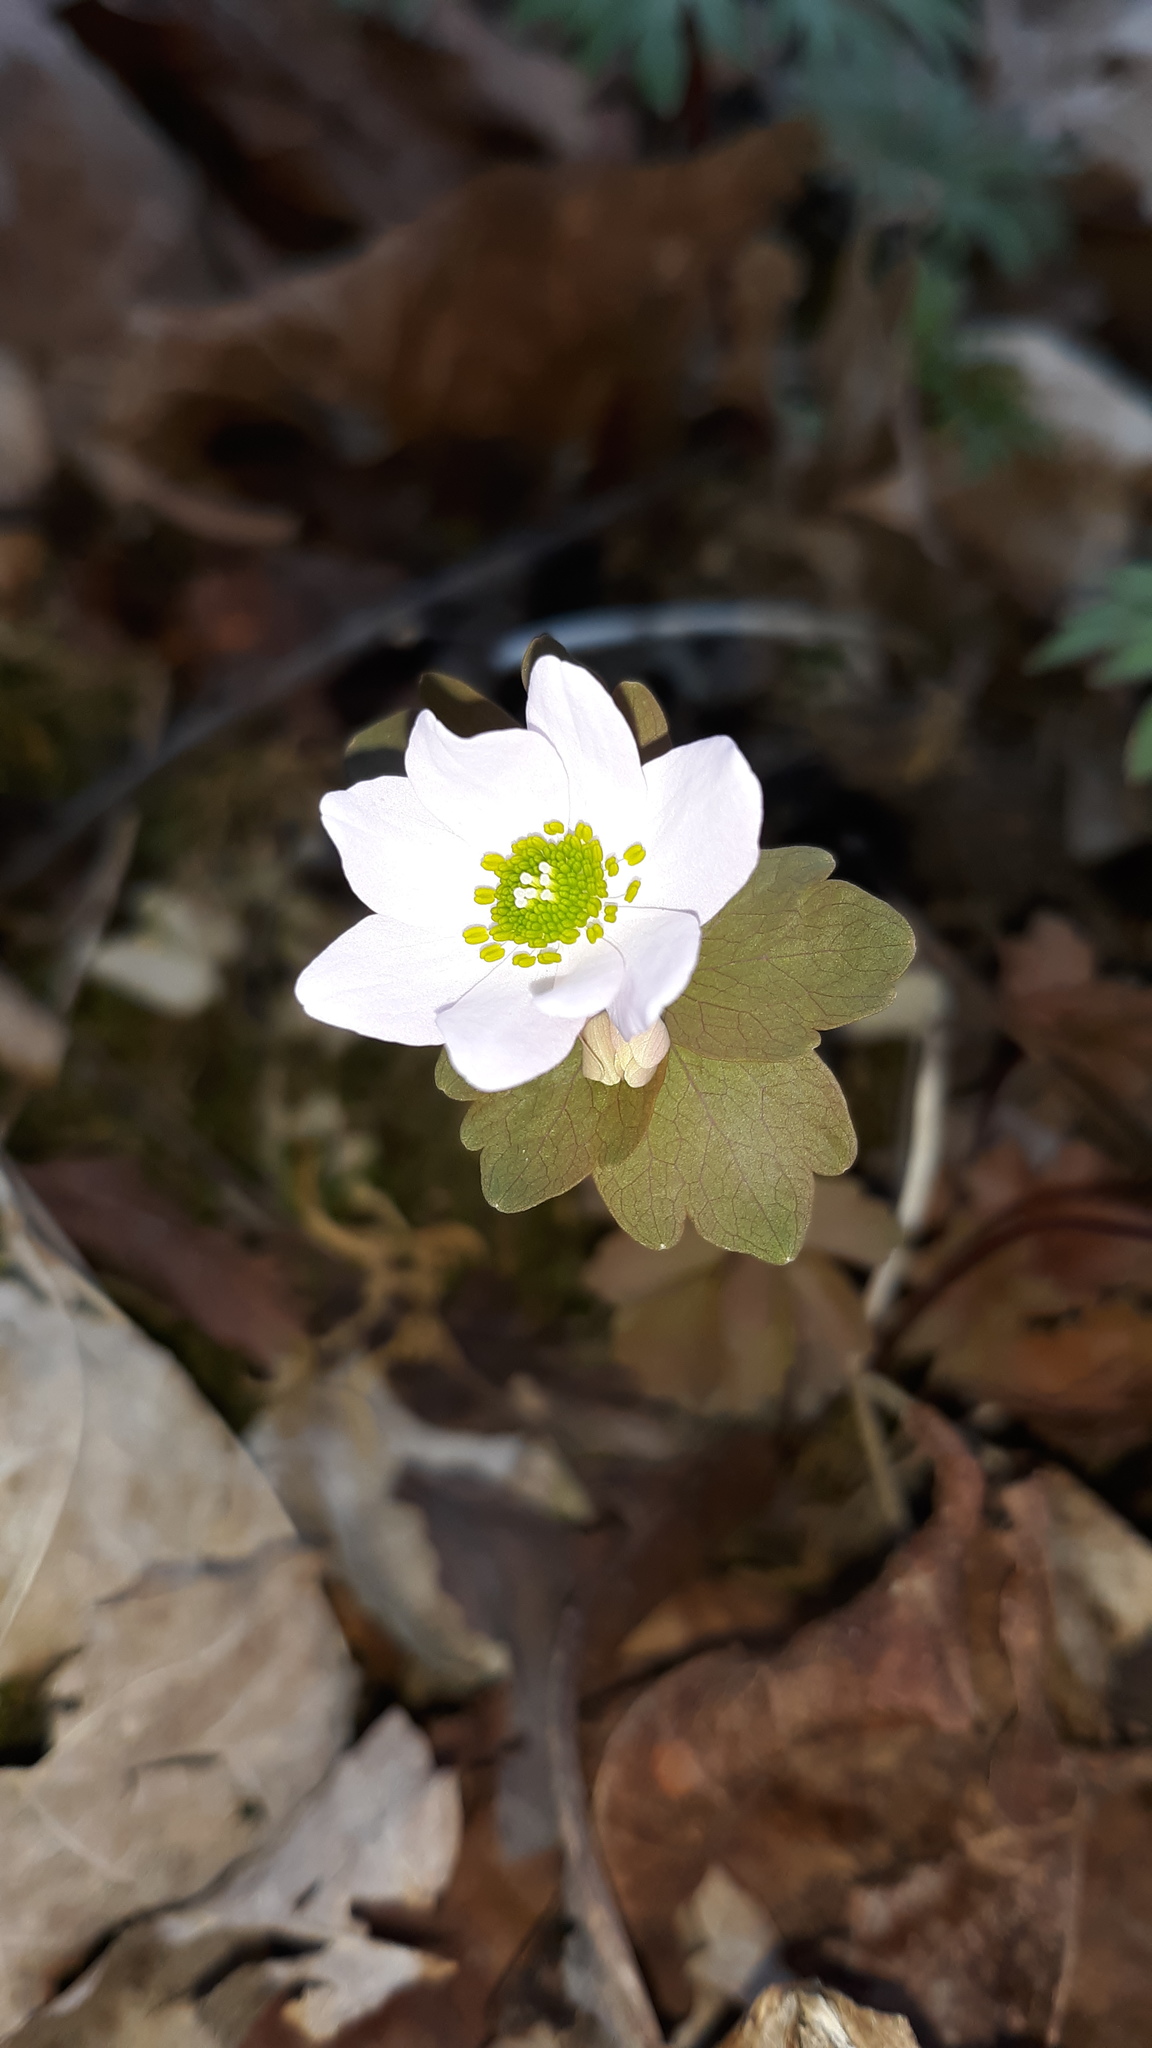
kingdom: Plantae
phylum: Tracheophyta
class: Magnoliopsida
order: Ranunculales
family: Ranunculaceae
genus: Thalictrum
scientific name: Thalictrum thalictroides
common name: Rue-anemone
